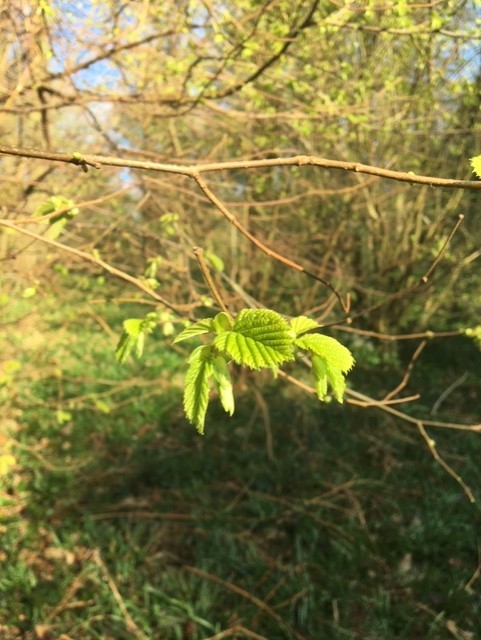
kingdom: Plantae
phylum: Tracheophyta
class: Magnoliopsida
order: Fagales
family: Betulaceae
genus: Corylus
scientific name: Corylus avellana
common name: European hazel
